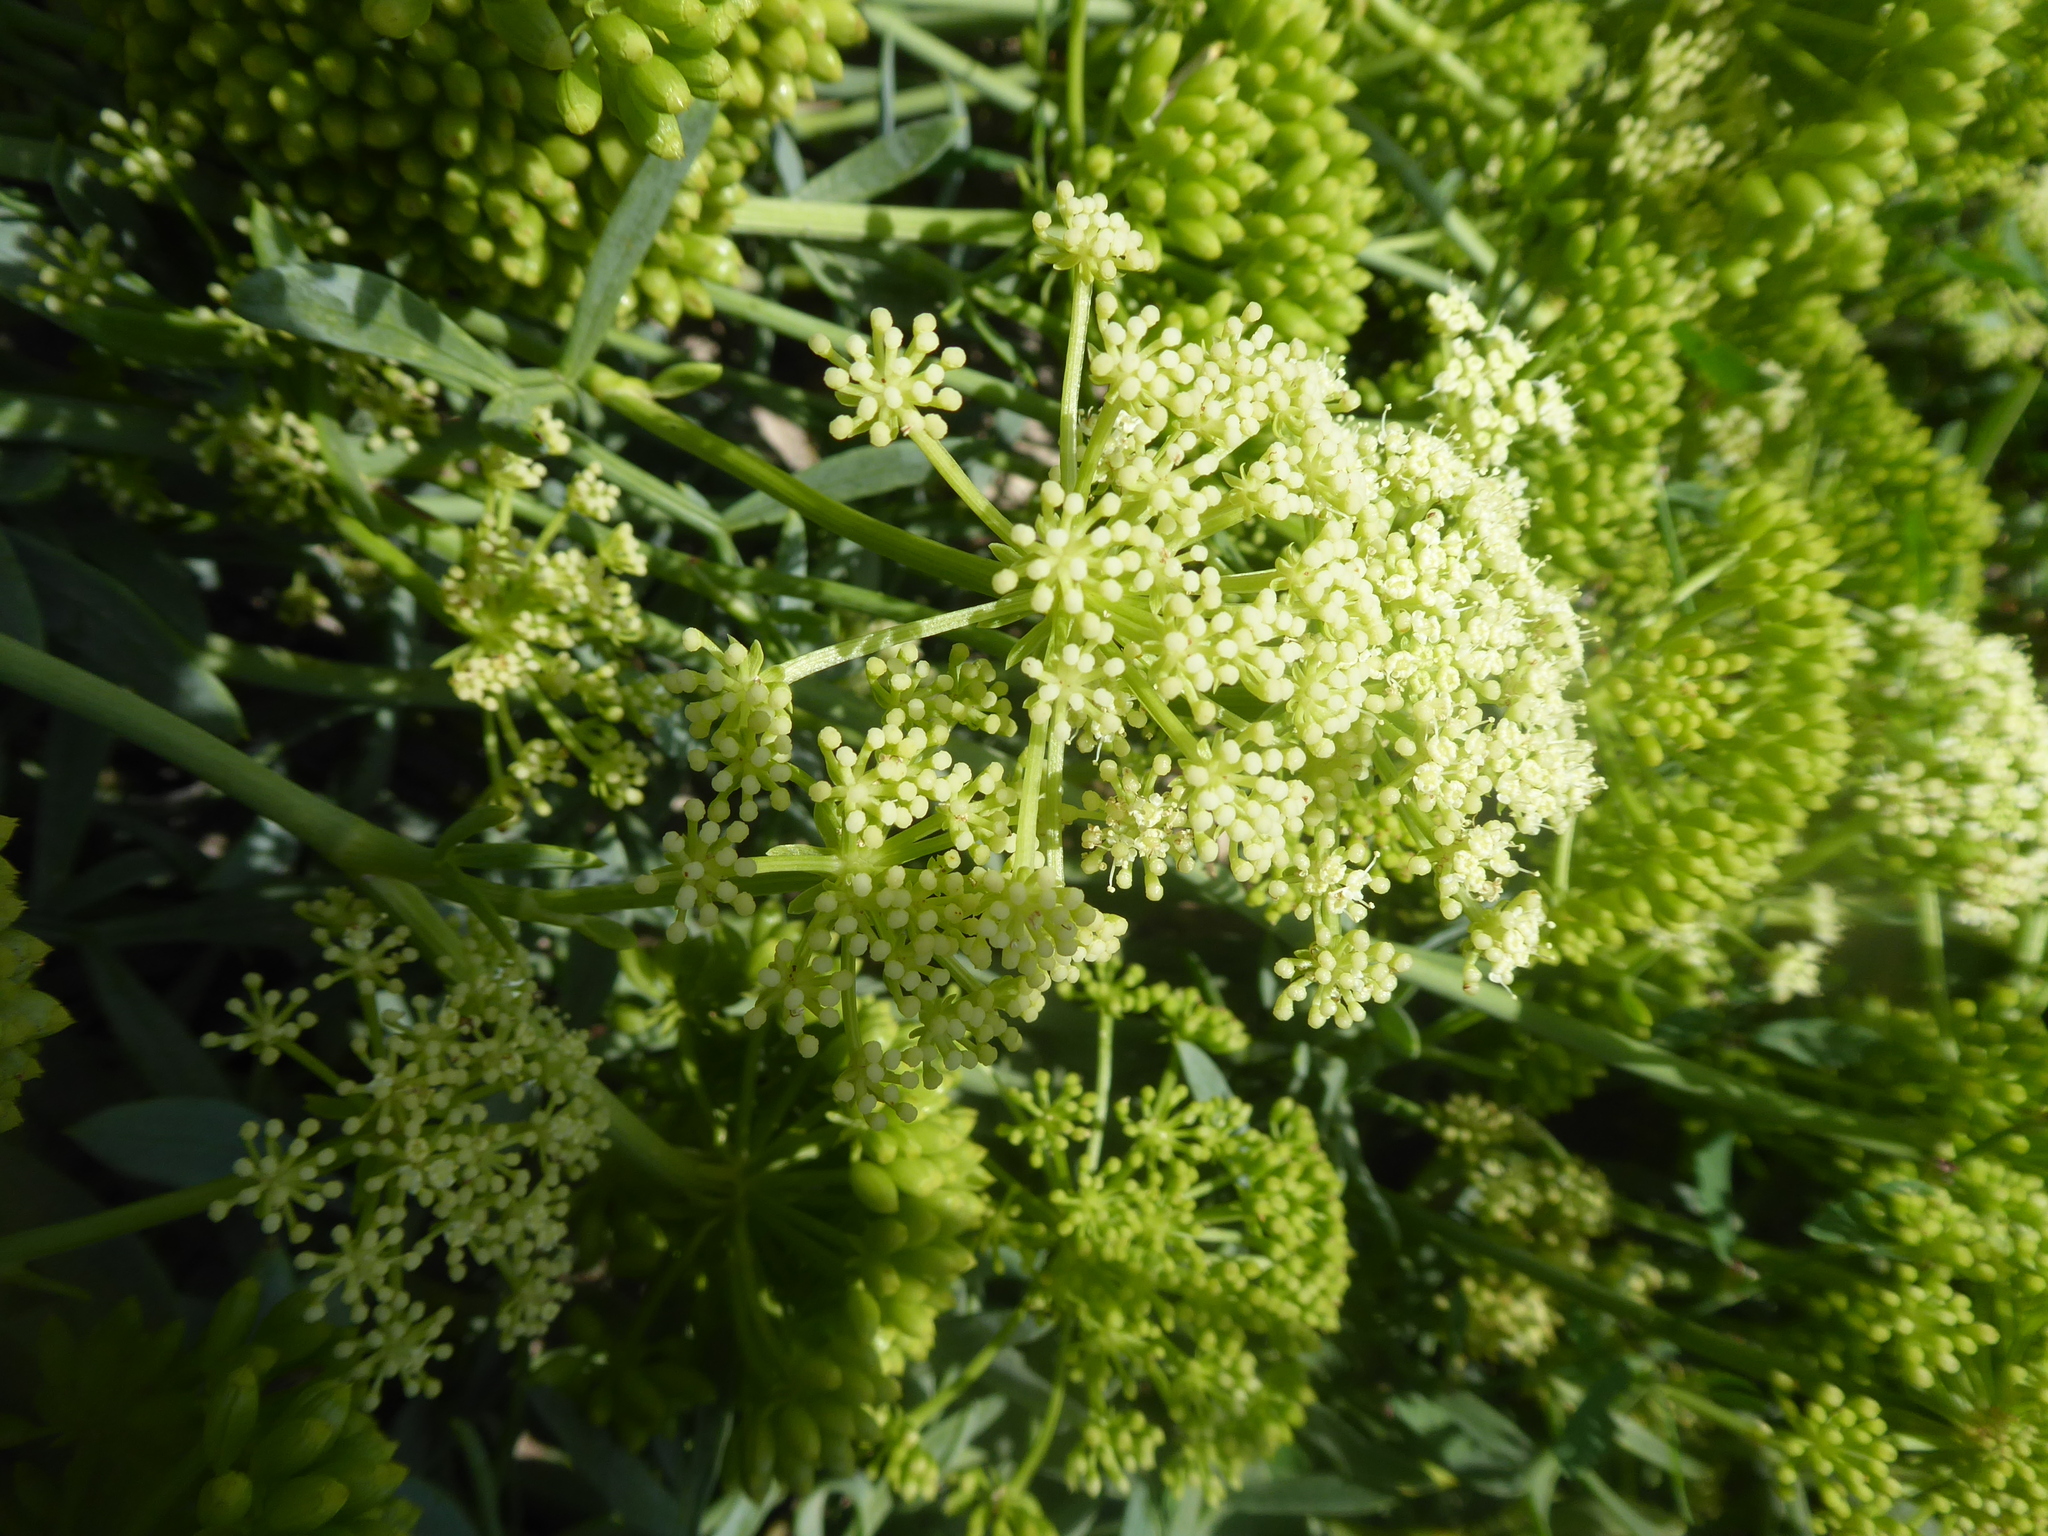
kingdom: Plantae
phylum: Tracheophyta
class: Magnoliopsida
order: Apiales
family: Apiaceae
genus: Crithmum
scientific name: Crithmum maritimum
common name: Rock samphire
